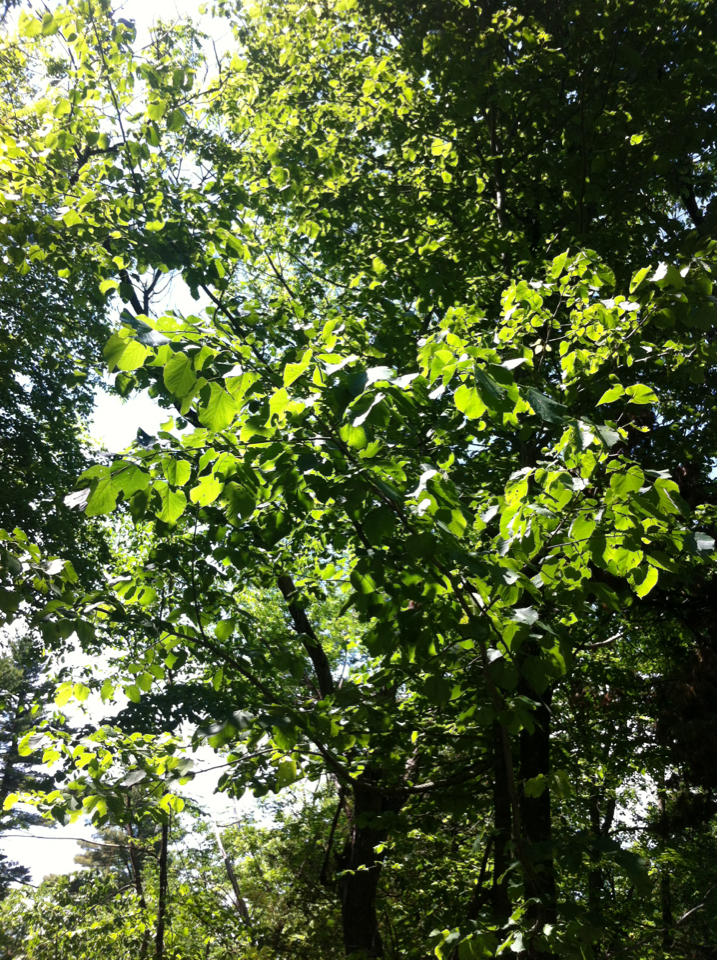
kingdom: Plantae
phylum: Tracheophyta
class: Magnoliopsida
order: Malvales
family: Malvaceae
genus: Tilia
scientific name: Tilia americana
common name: Basswood
